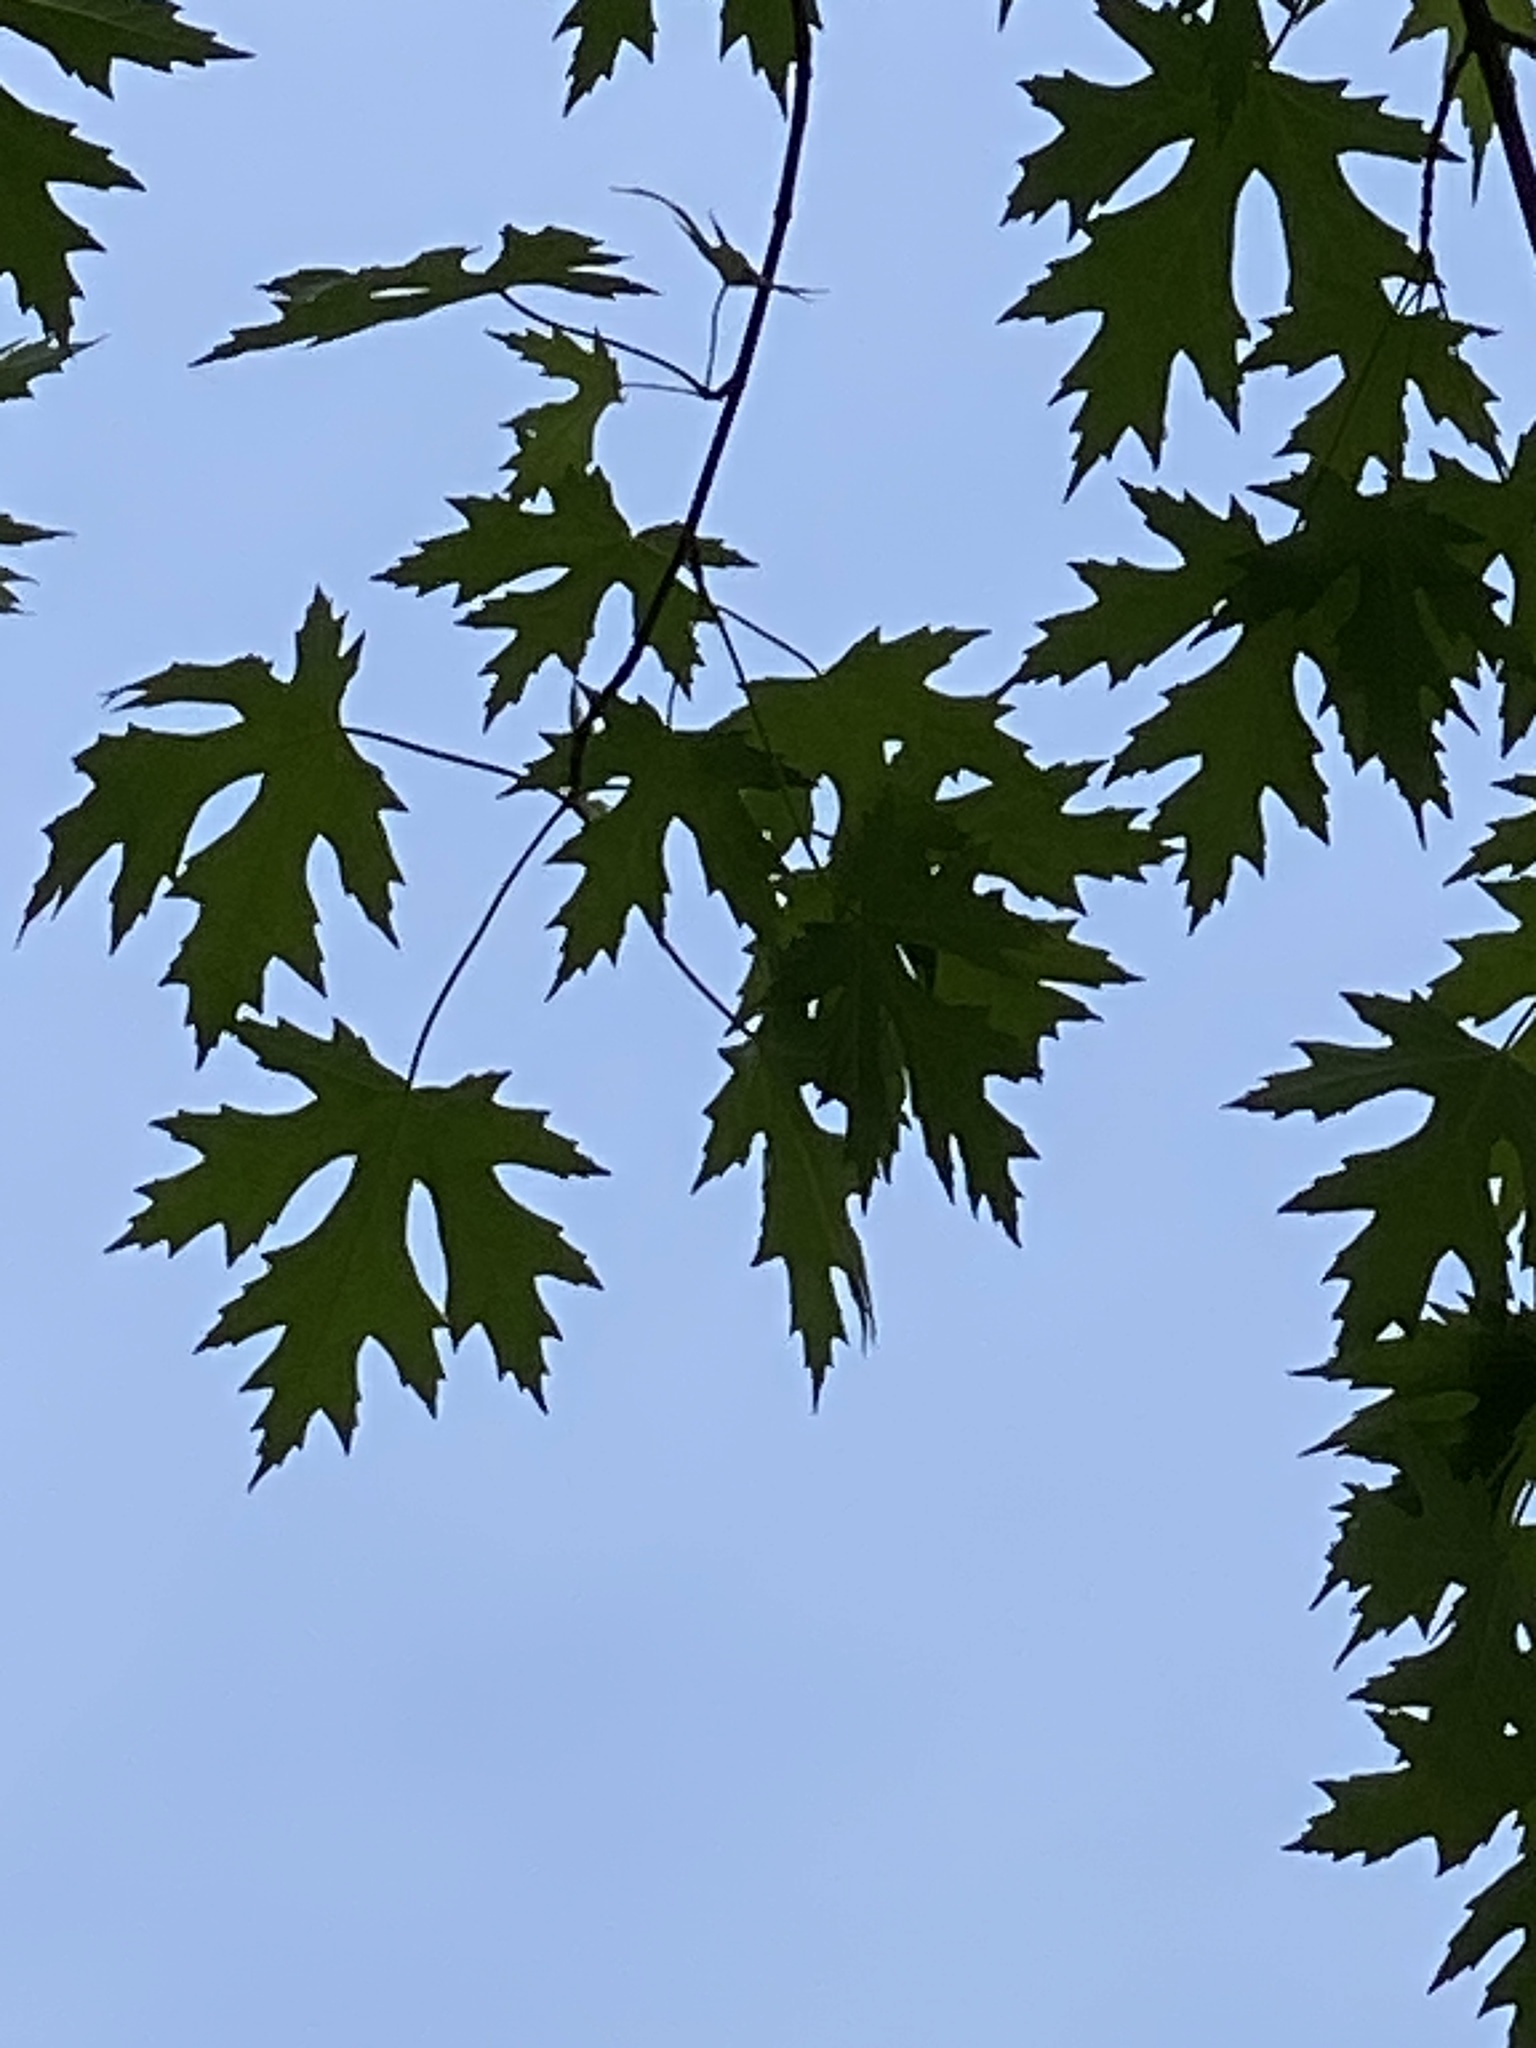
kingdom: Plantae
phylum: Tracheophyta
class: Magnoliopsida
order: Sapindales
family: Sapindaceae
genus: Acer
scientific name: Acer saccharinum
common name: Silver maple
